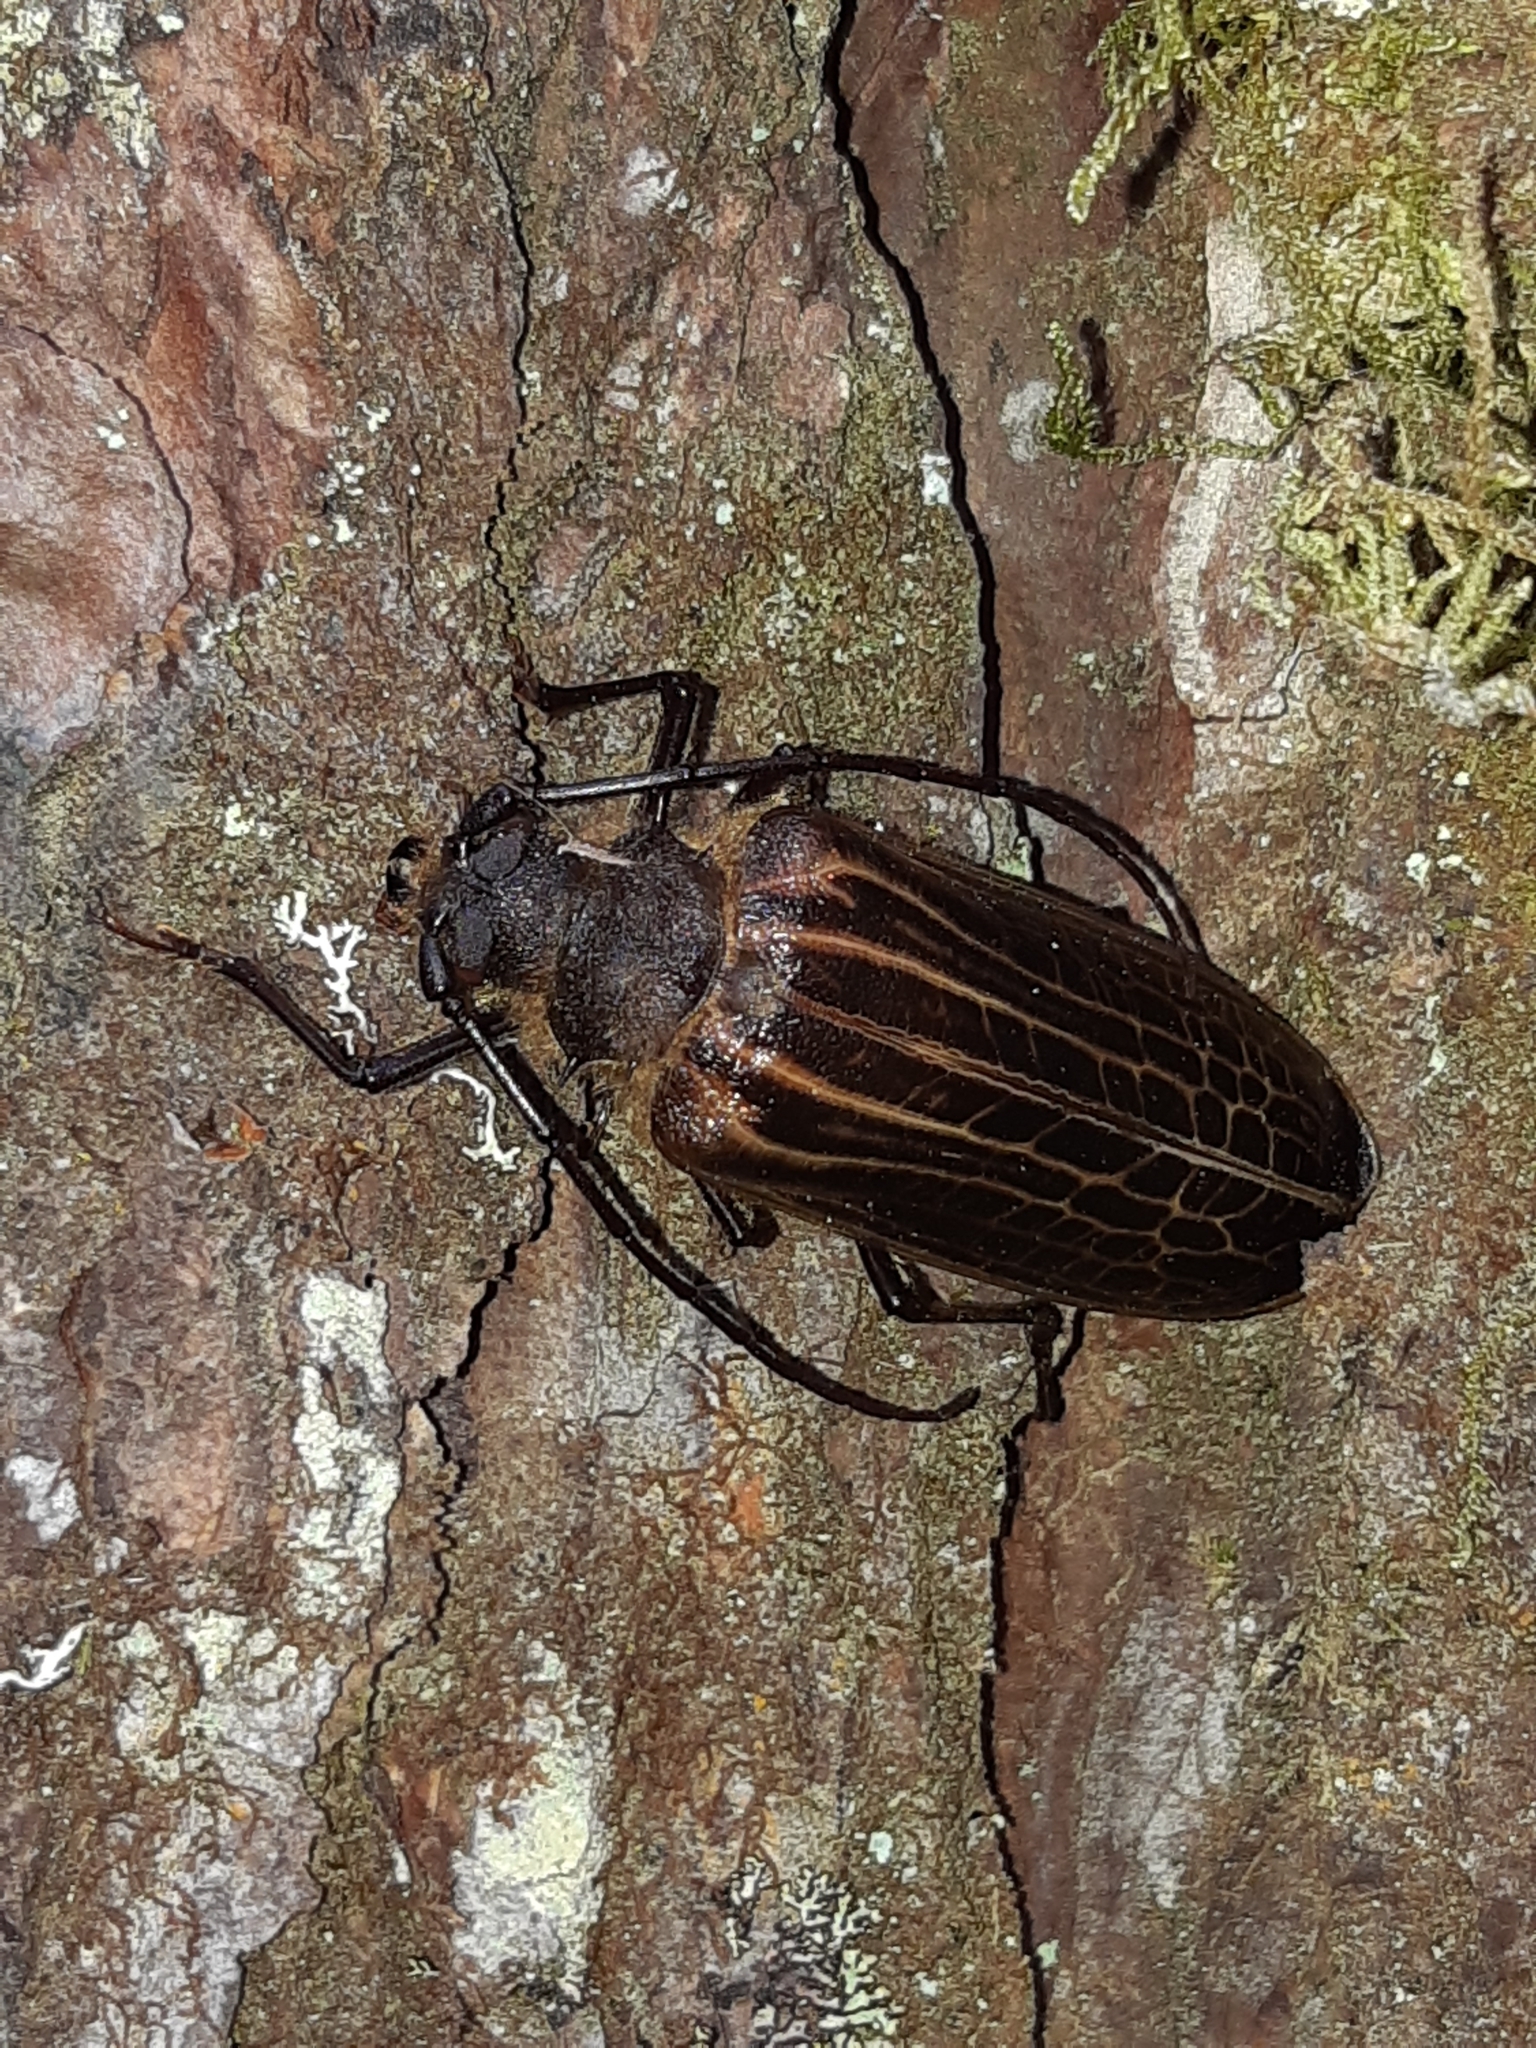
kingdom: Animalia
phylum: Arthropoda
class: Insecta
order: Coleoptera
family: Cerambycidae
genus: Prionoplus
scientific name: Prionoplus reticularis
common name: Huhu beetle
